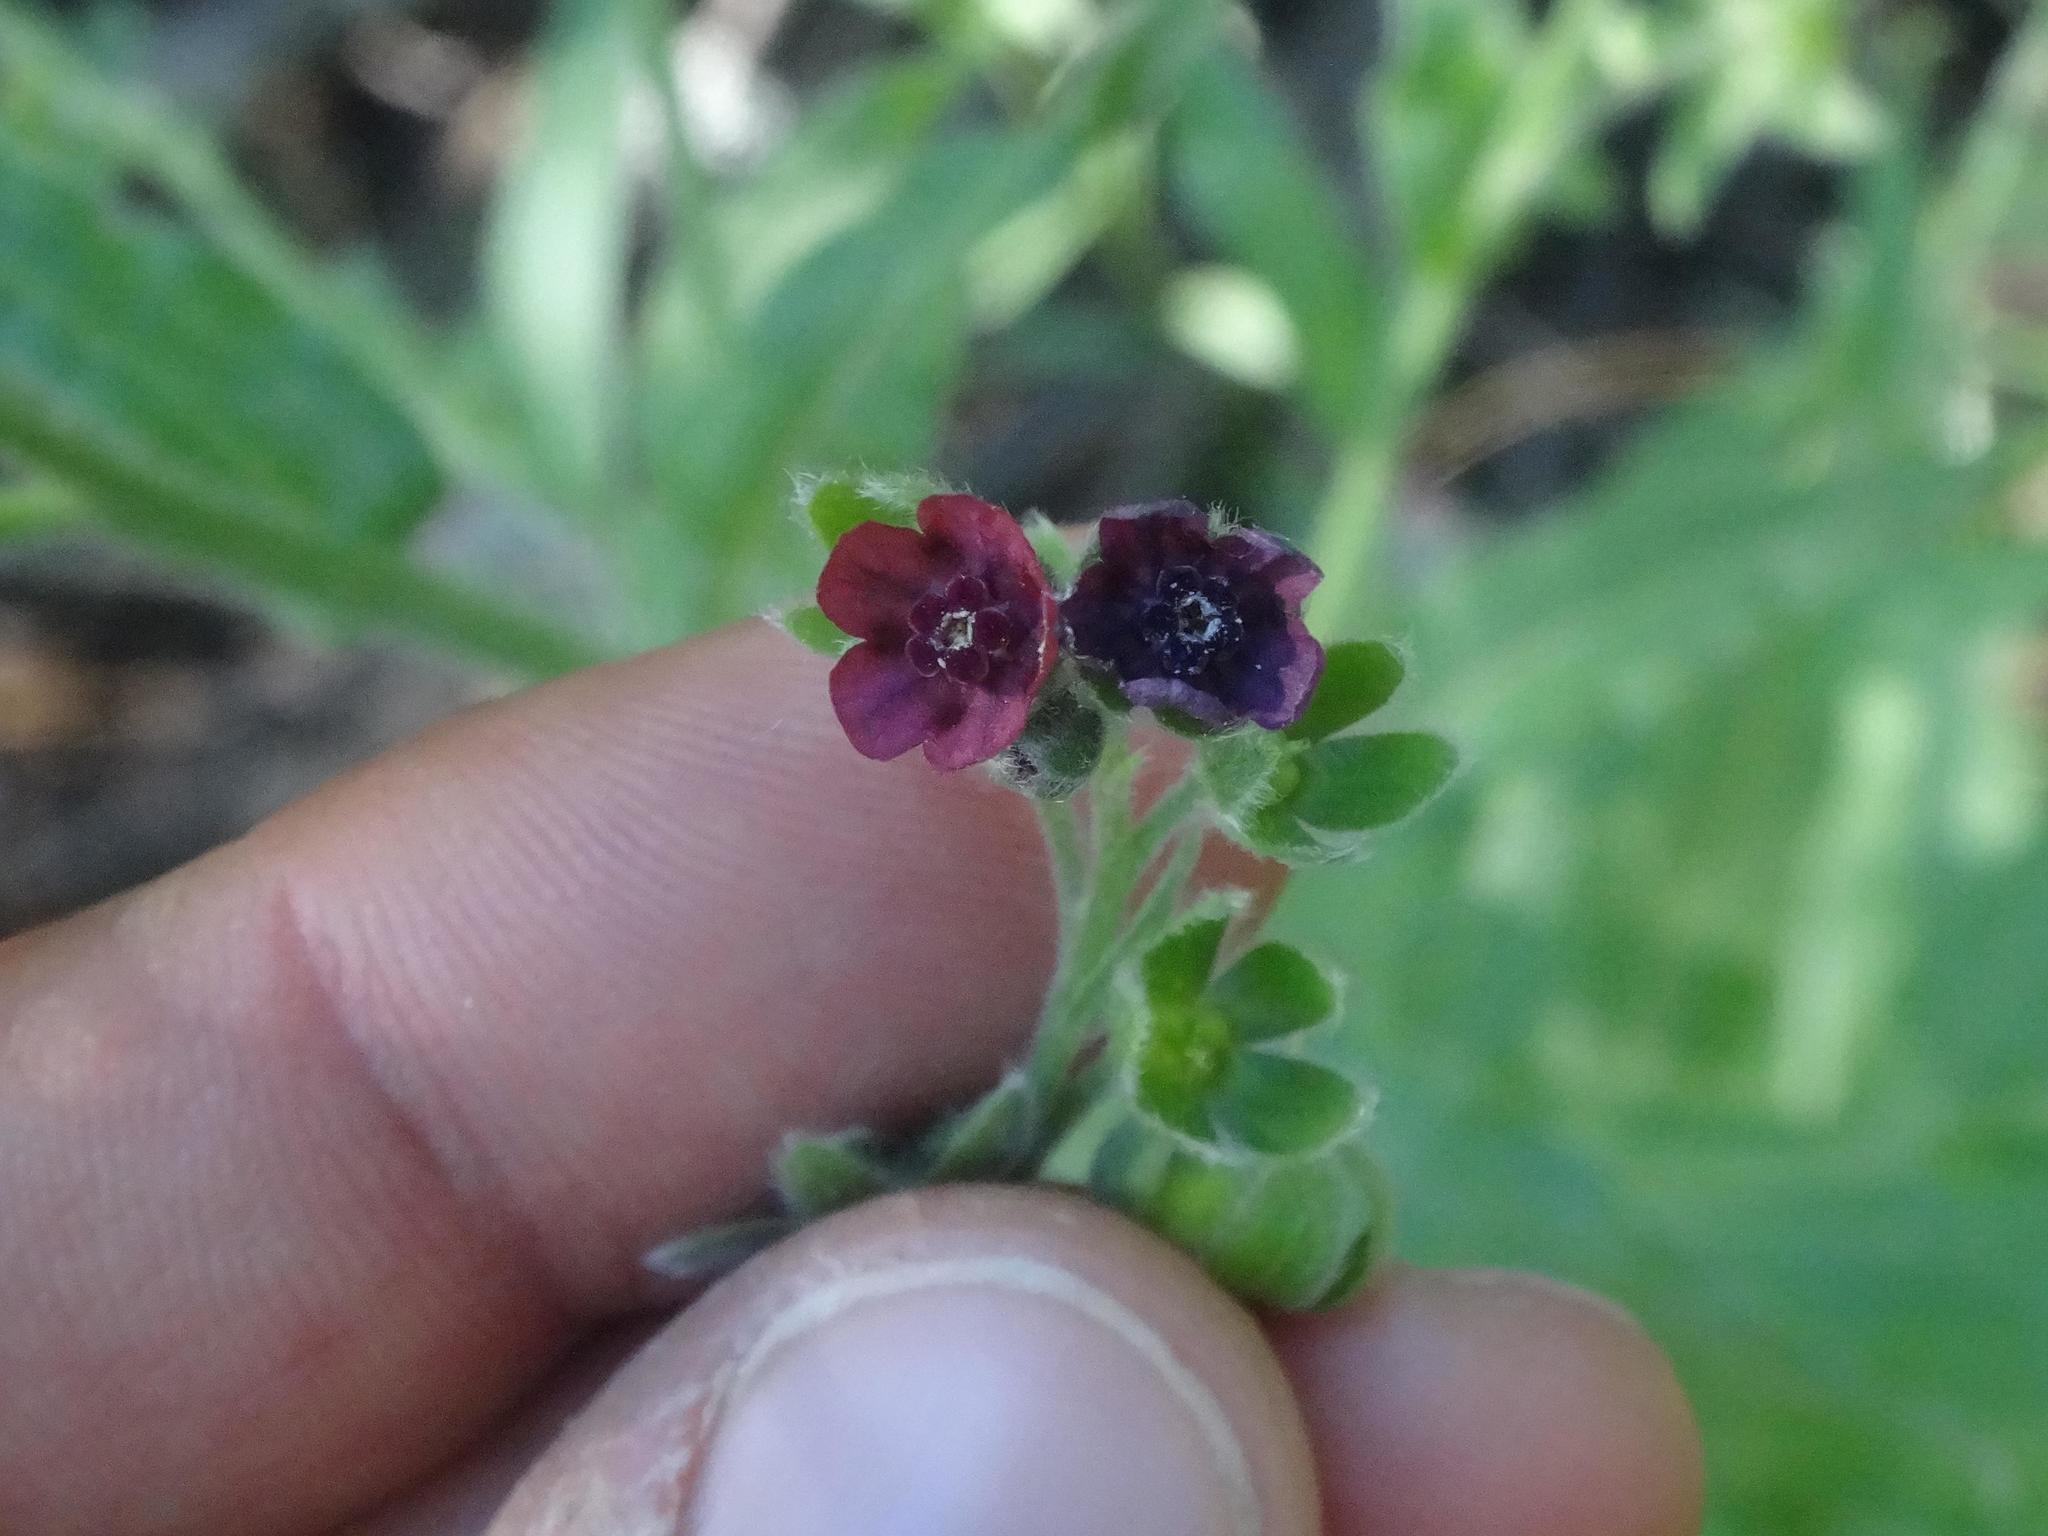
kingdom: Plantae
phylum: Tracheophyta
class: Magnoliopsida
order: Boraginales
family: Boraginaceae
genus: Cynoglossum
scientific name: Cynoglossum officinale
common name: Hound's-tongue
